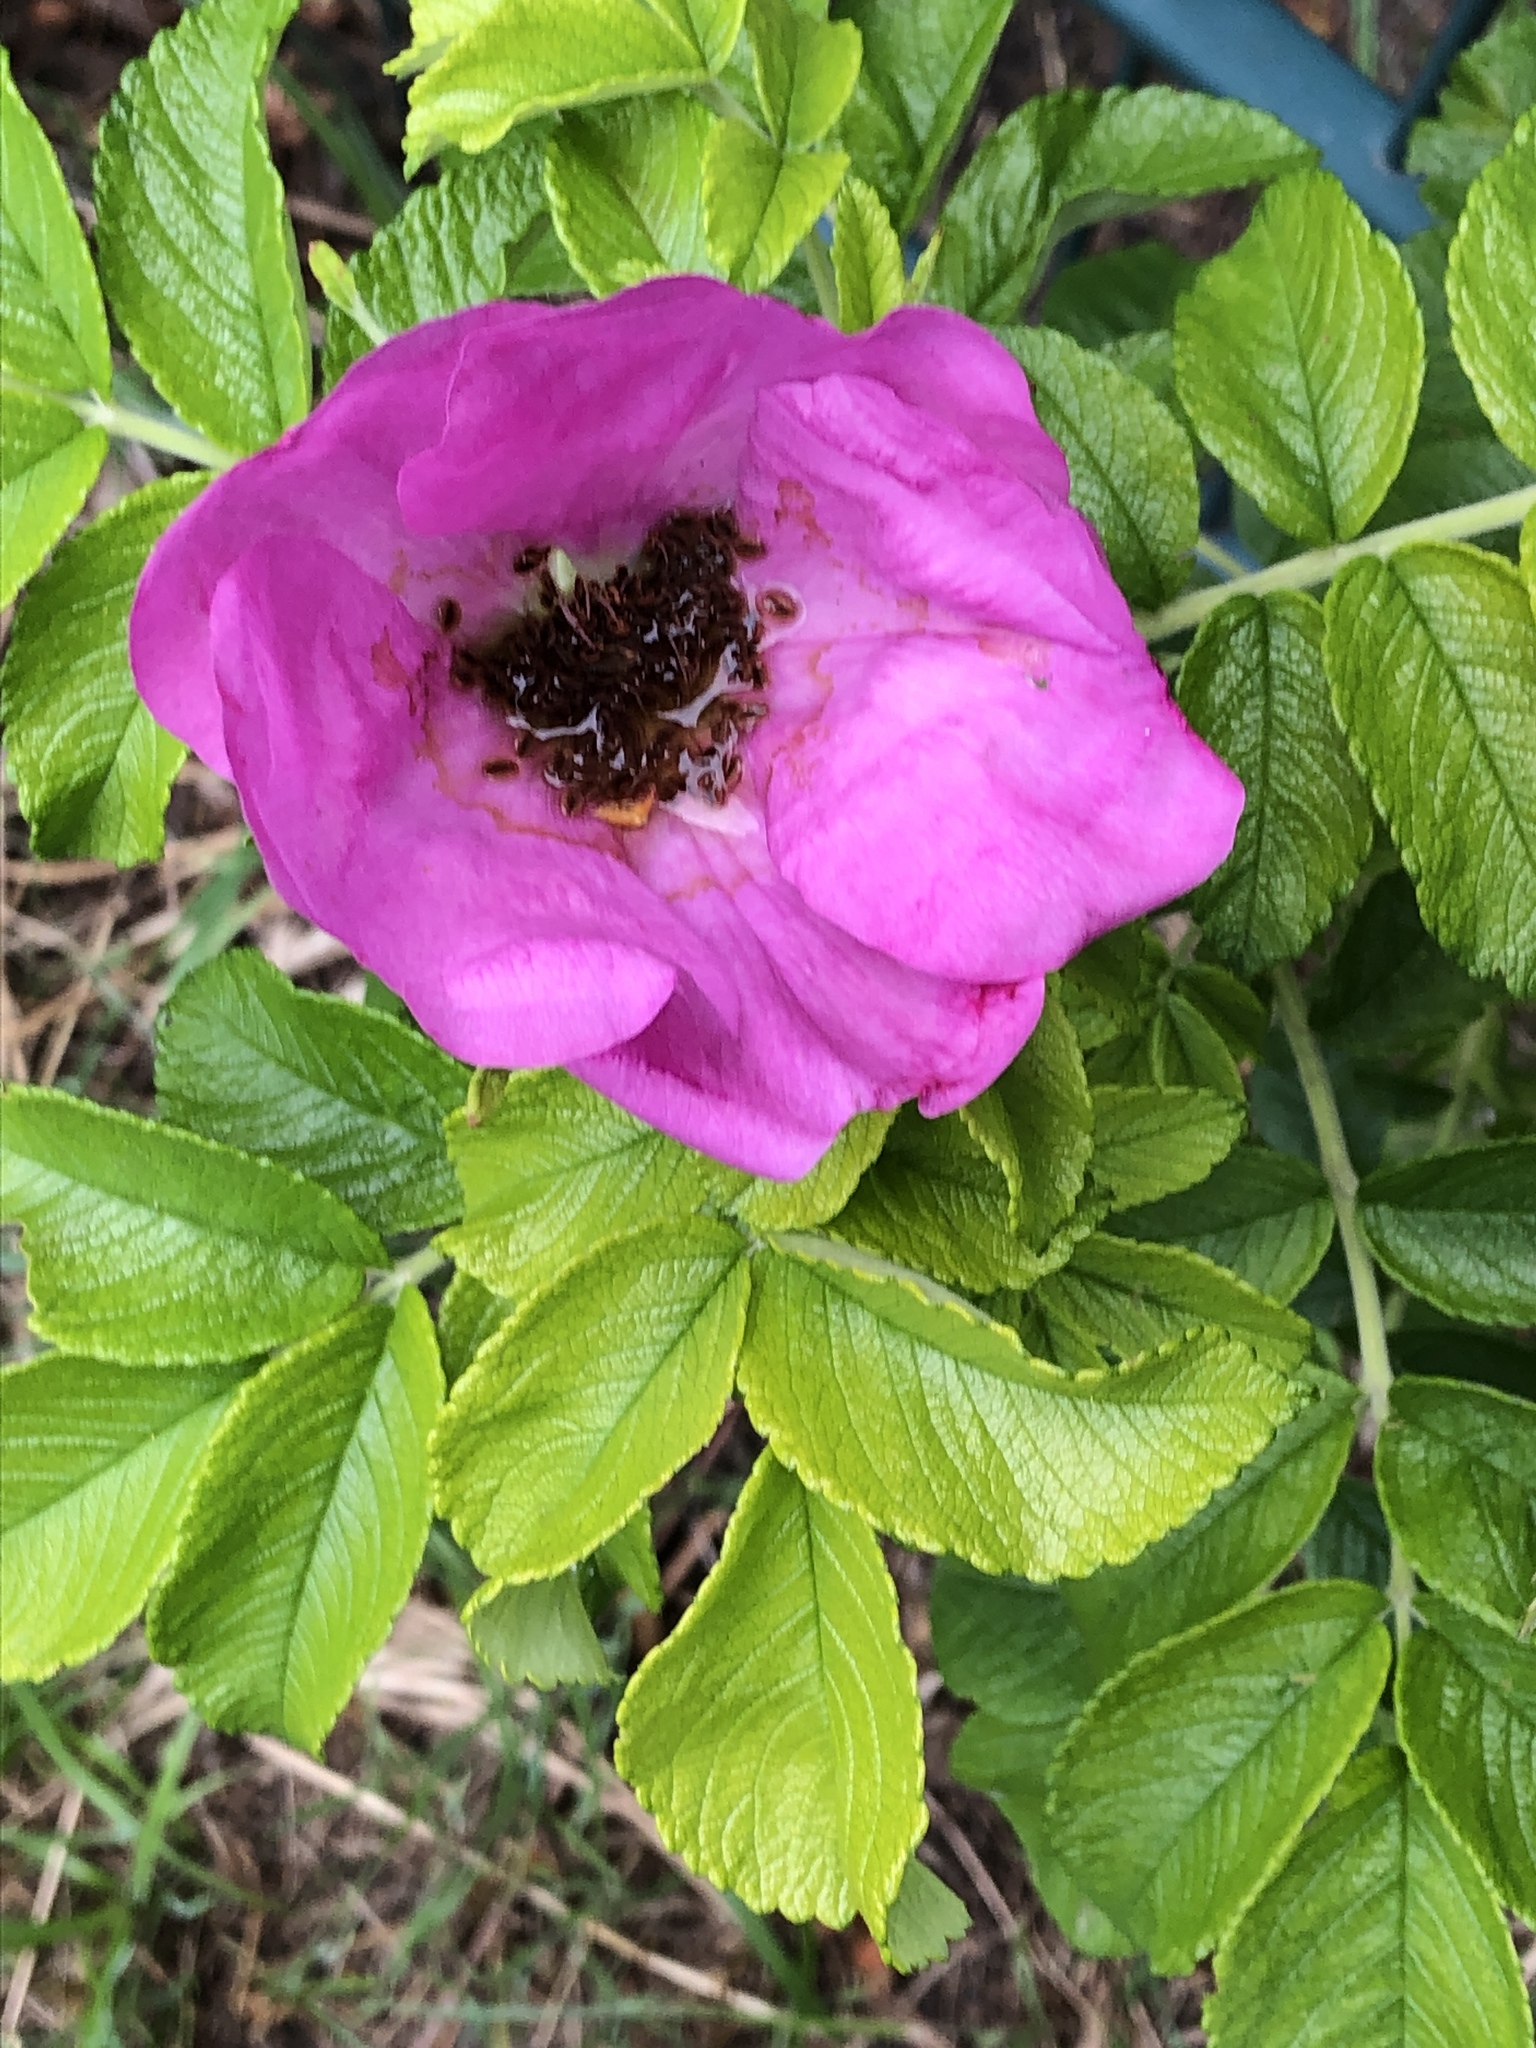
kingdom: Plantae
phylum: Tracheophyta
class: Magnoliopsida
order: Rosales
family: Rosaceae
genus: Rosa
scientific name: Rosa rugosa
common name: Japanese rose
